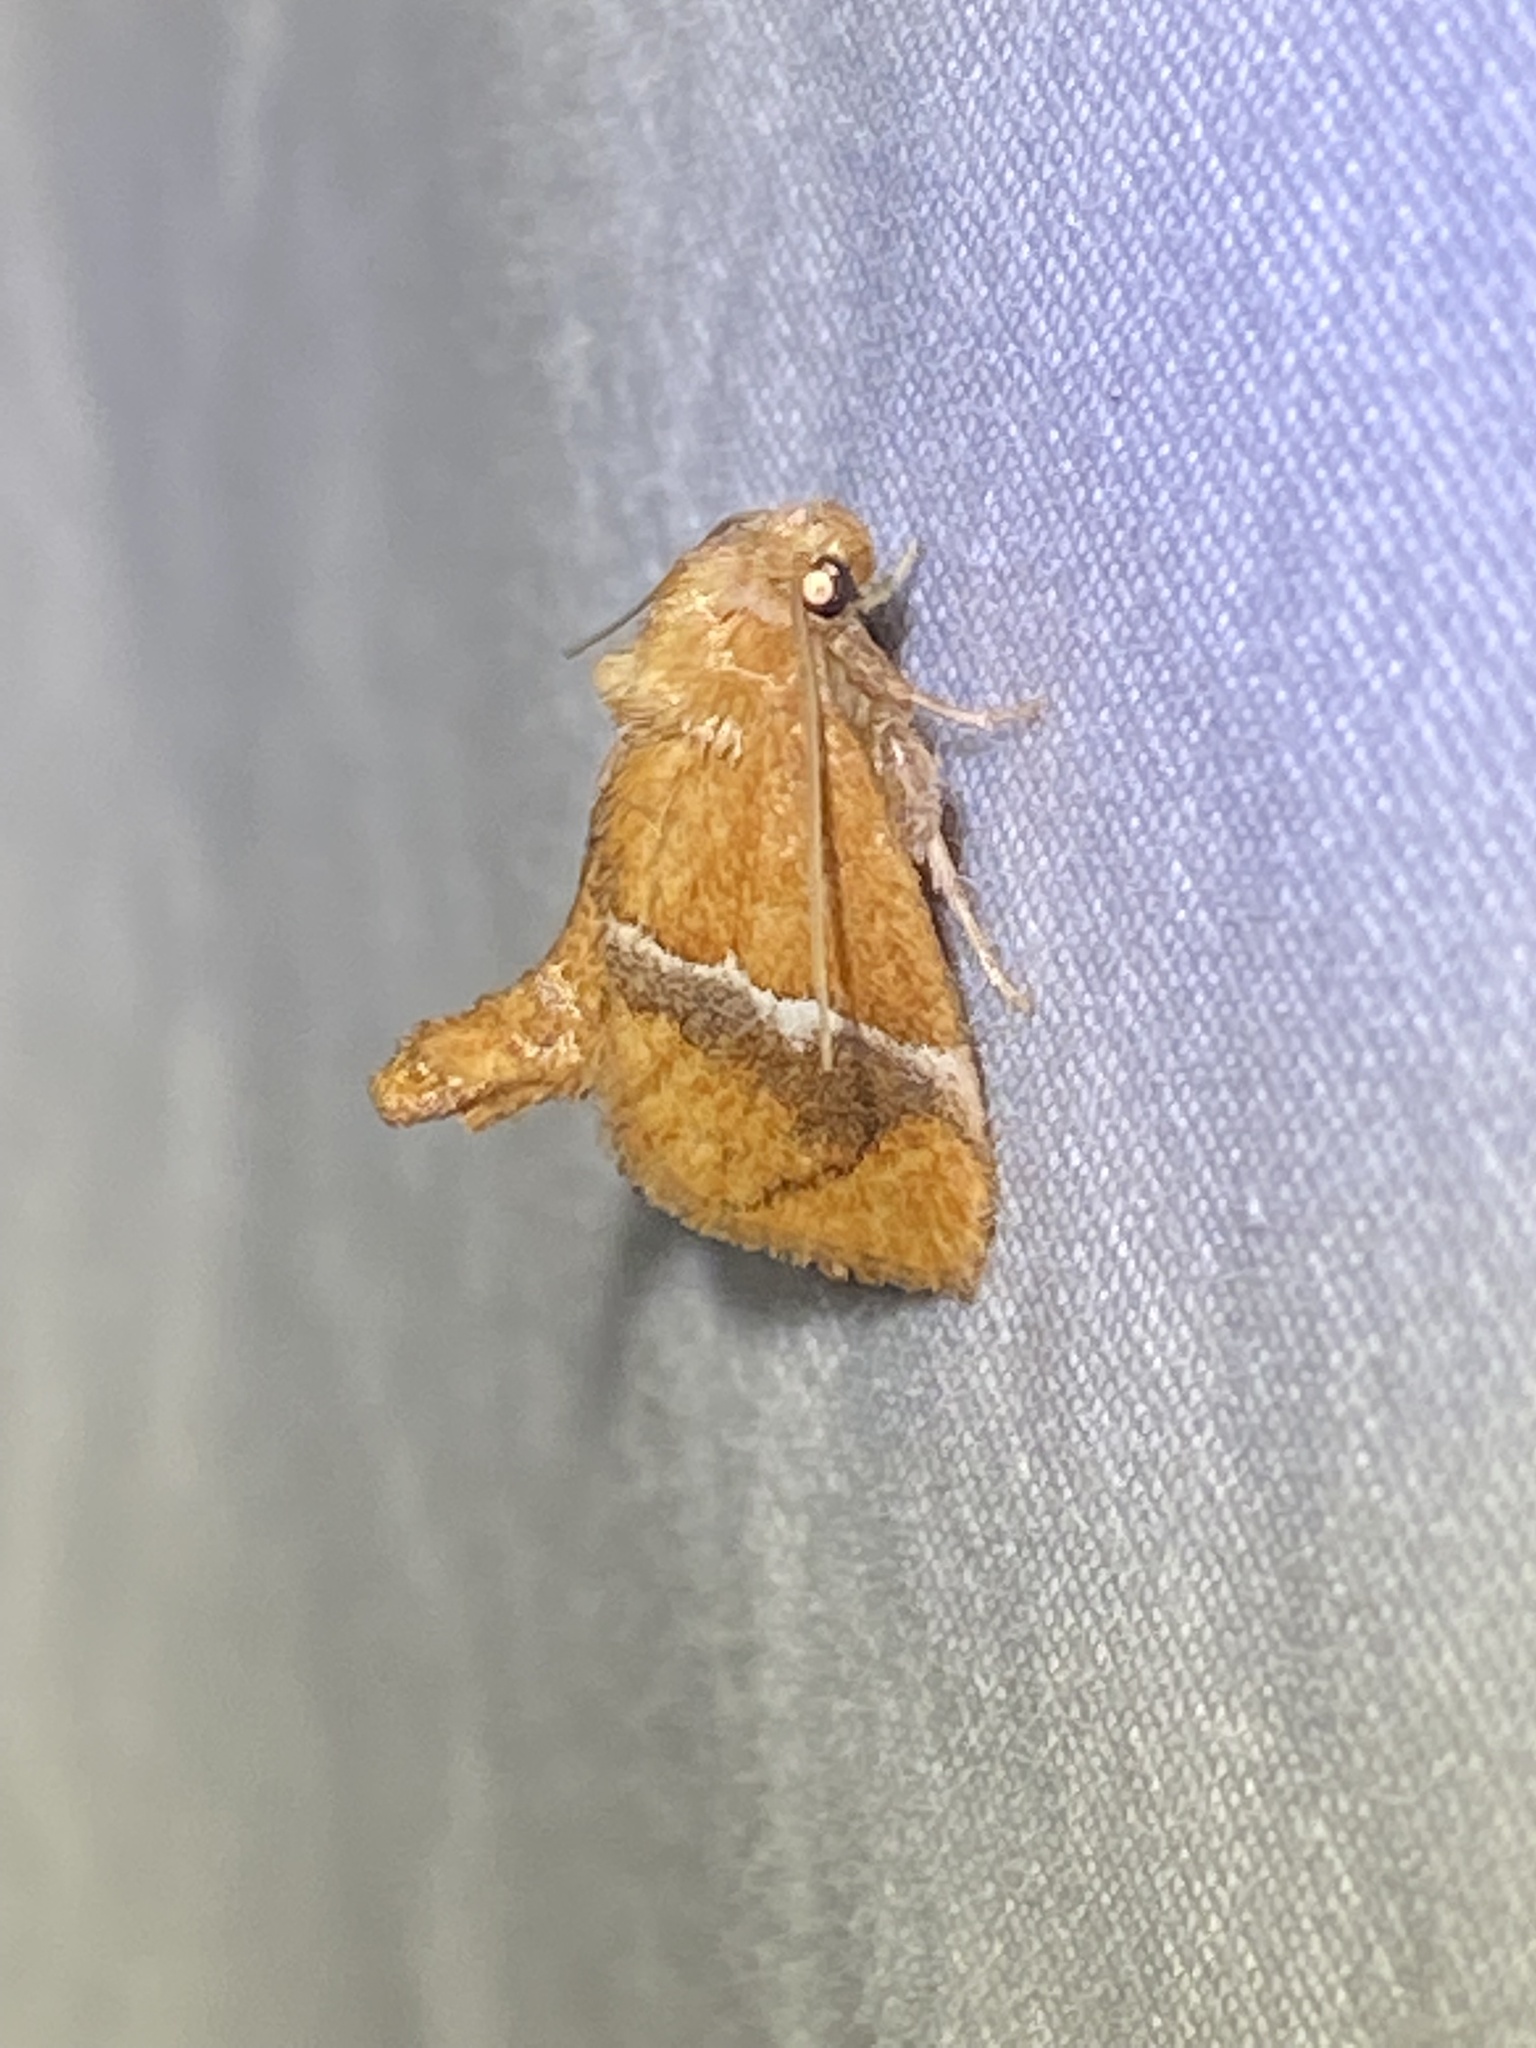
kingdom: Animalia
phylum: Arthropoda
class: Insecta
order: Lepidoptera
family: Limacodidae
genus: Lithacodes
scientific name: Lithacodes fasciola
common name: Yellow-shouldered slug moth
